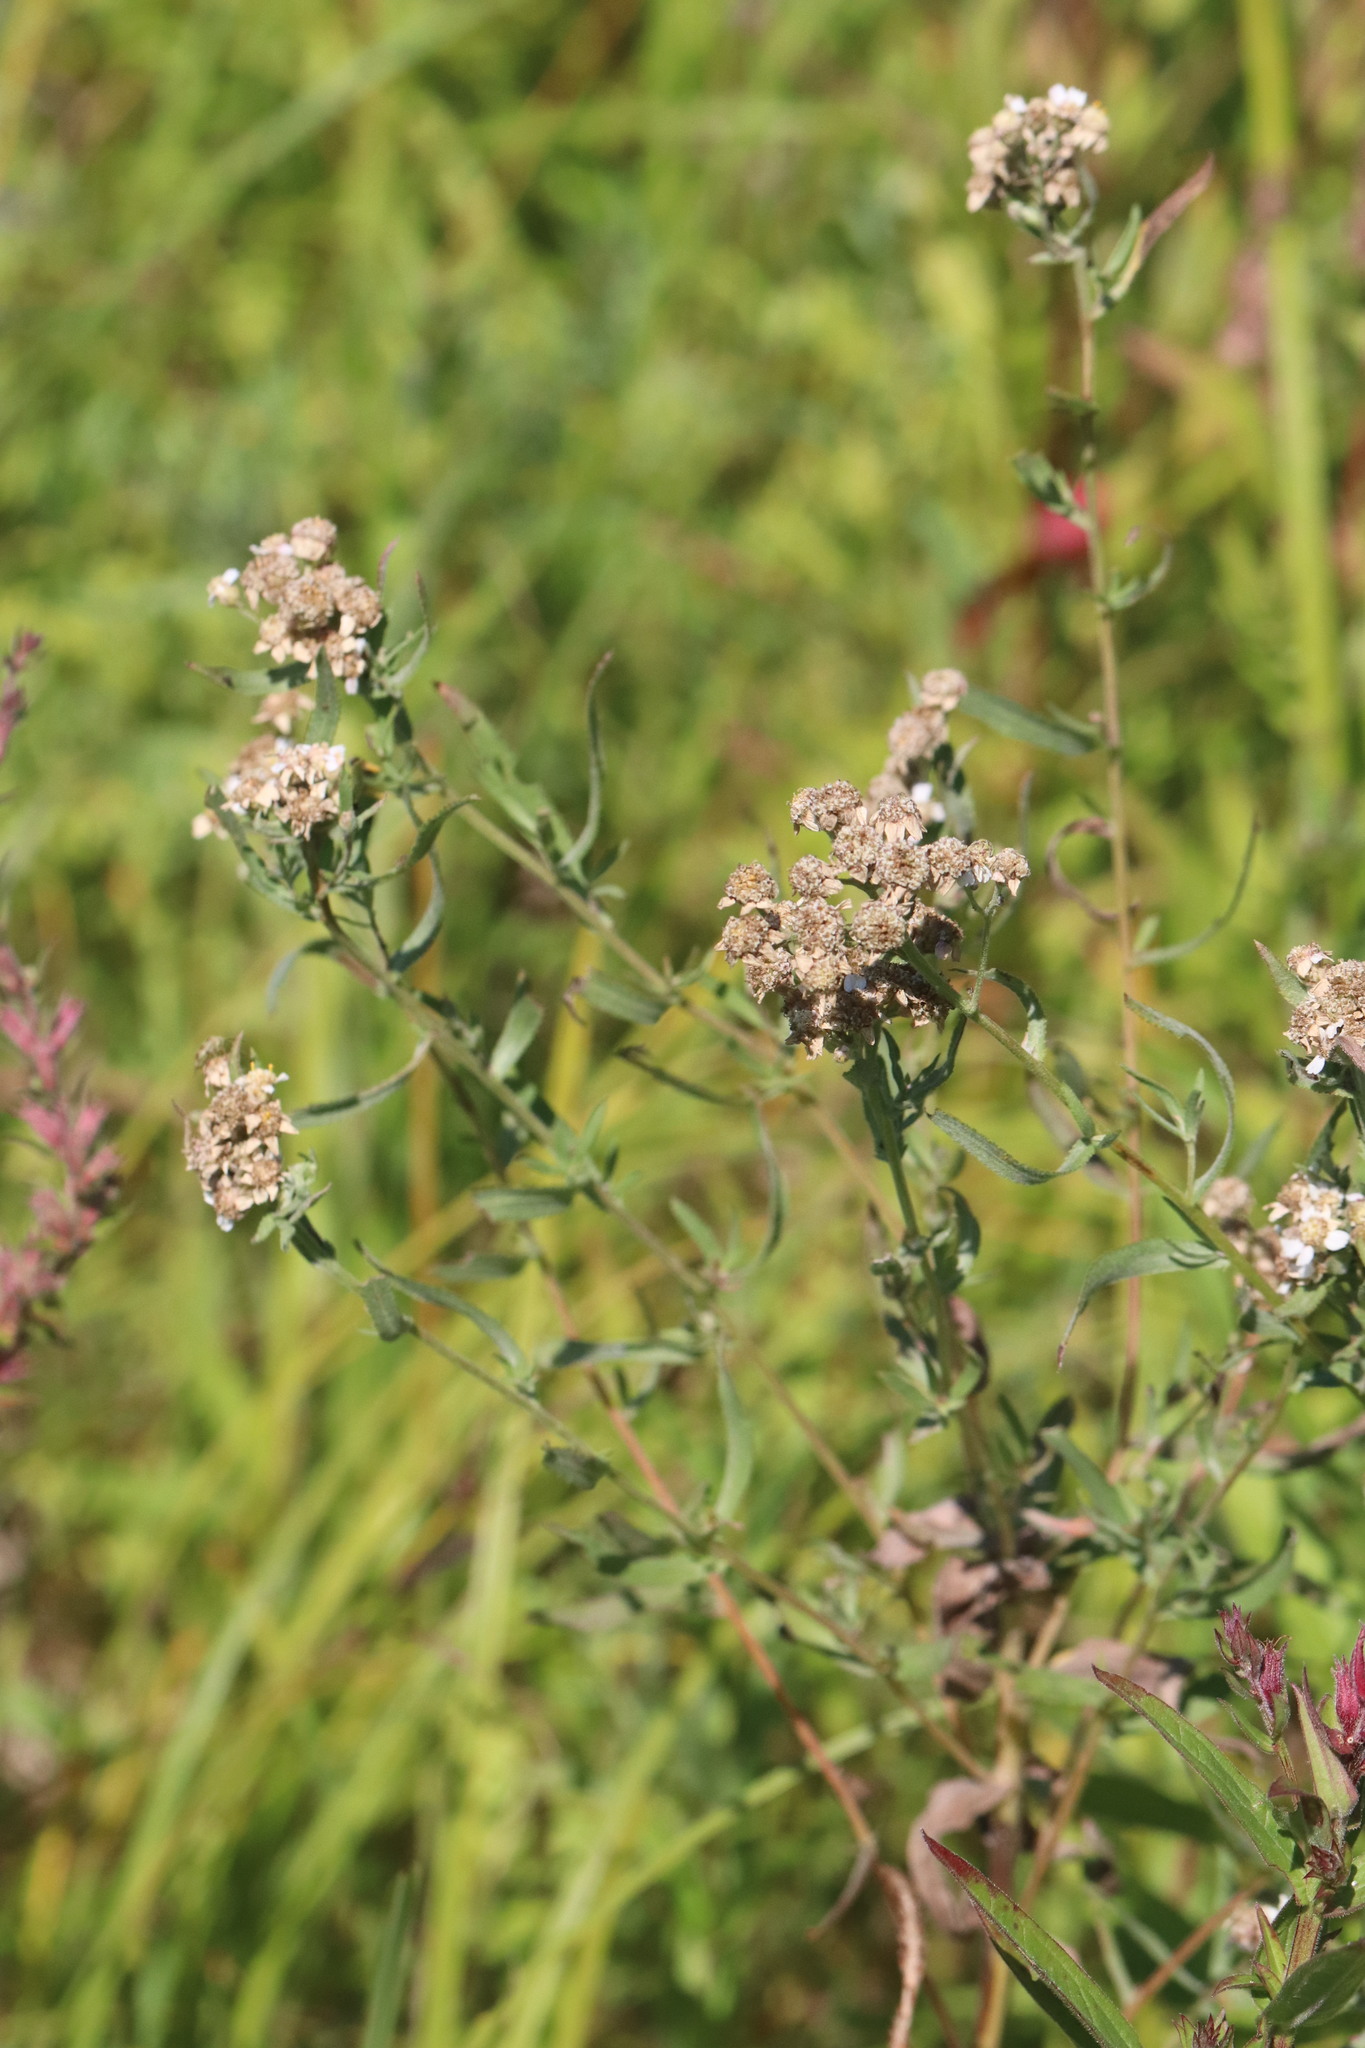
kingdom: Plantae
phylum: Tracheophyta
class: Magnoliopsida
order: Asterales
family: Asteraceae
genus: Achillea
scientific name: Achillea salicifolia
